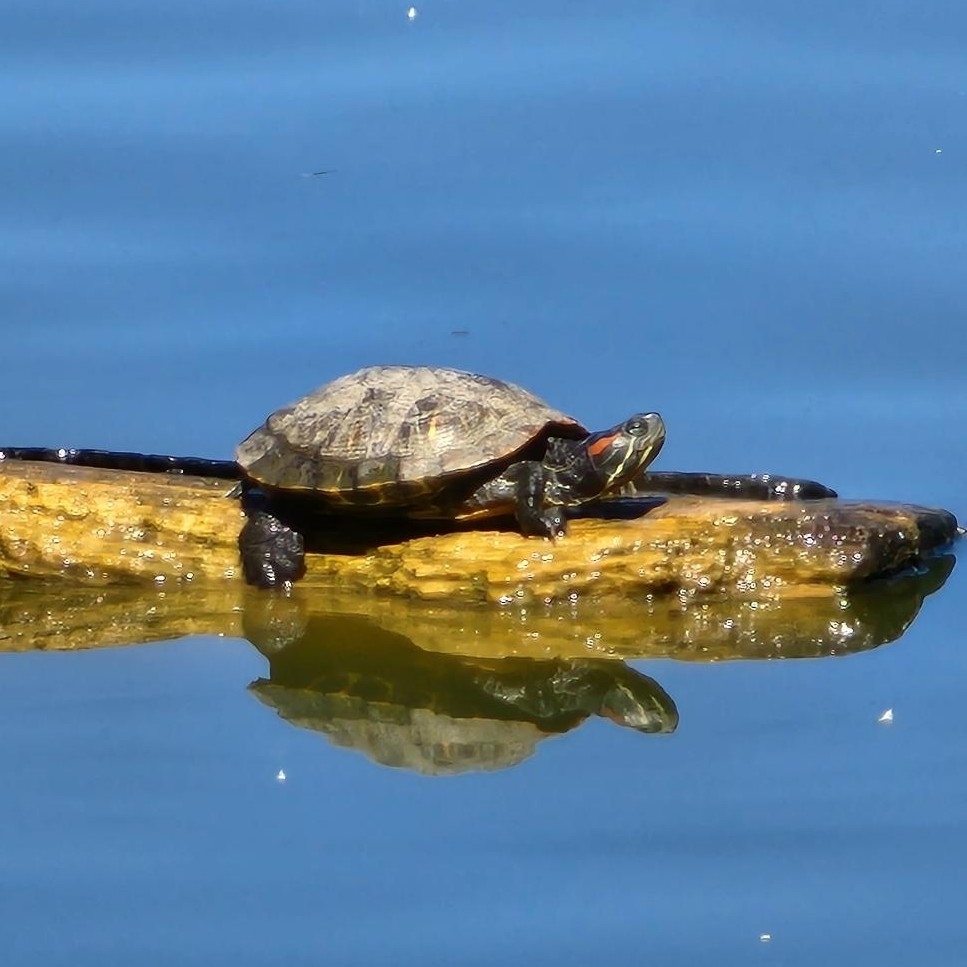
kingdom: Animalia
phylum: Chordata
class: Testudines
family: Emydidae
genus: Trachemys
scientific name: Trachemys scripta
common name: Slider
